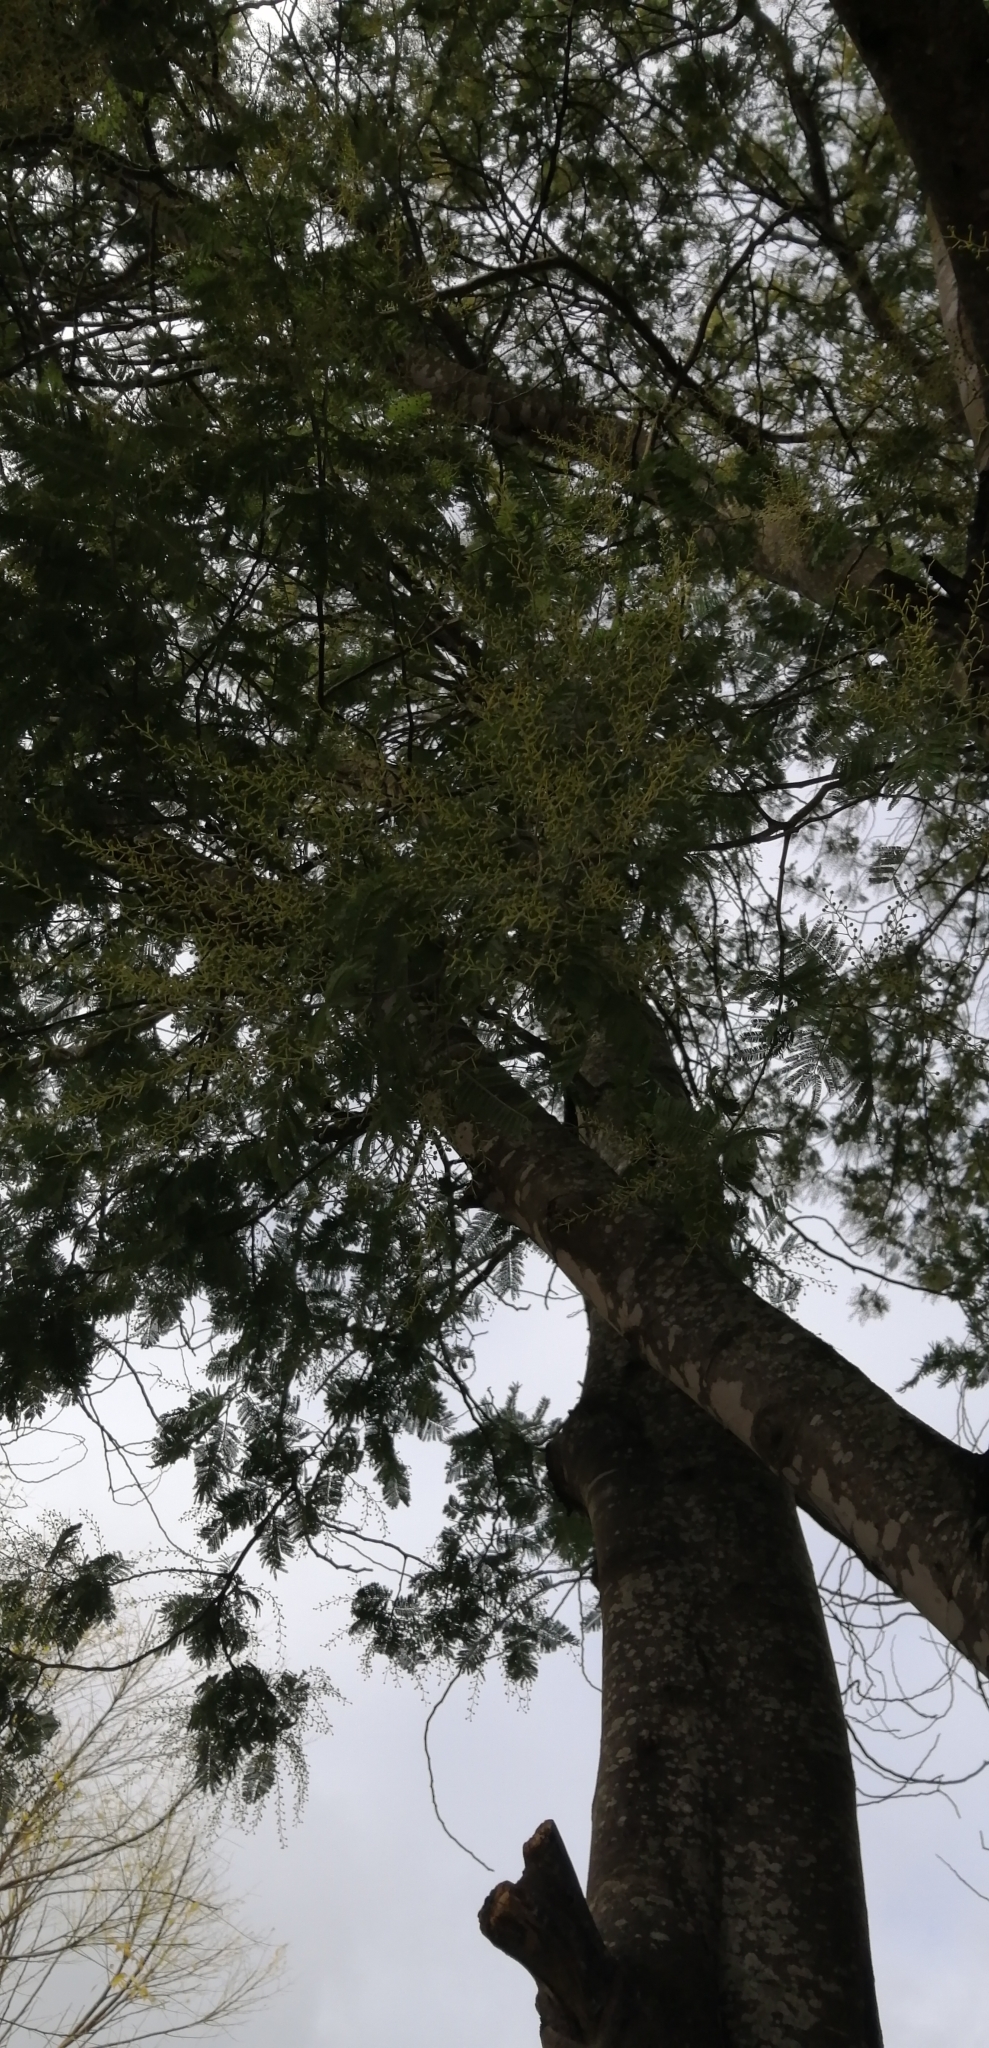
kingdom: Plantae
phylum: Tracheophyta
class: Magnoliopsida
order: Fabales
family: Fabaceae
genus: Acacia
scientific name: Acacia dealbata
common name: Silver wattle
